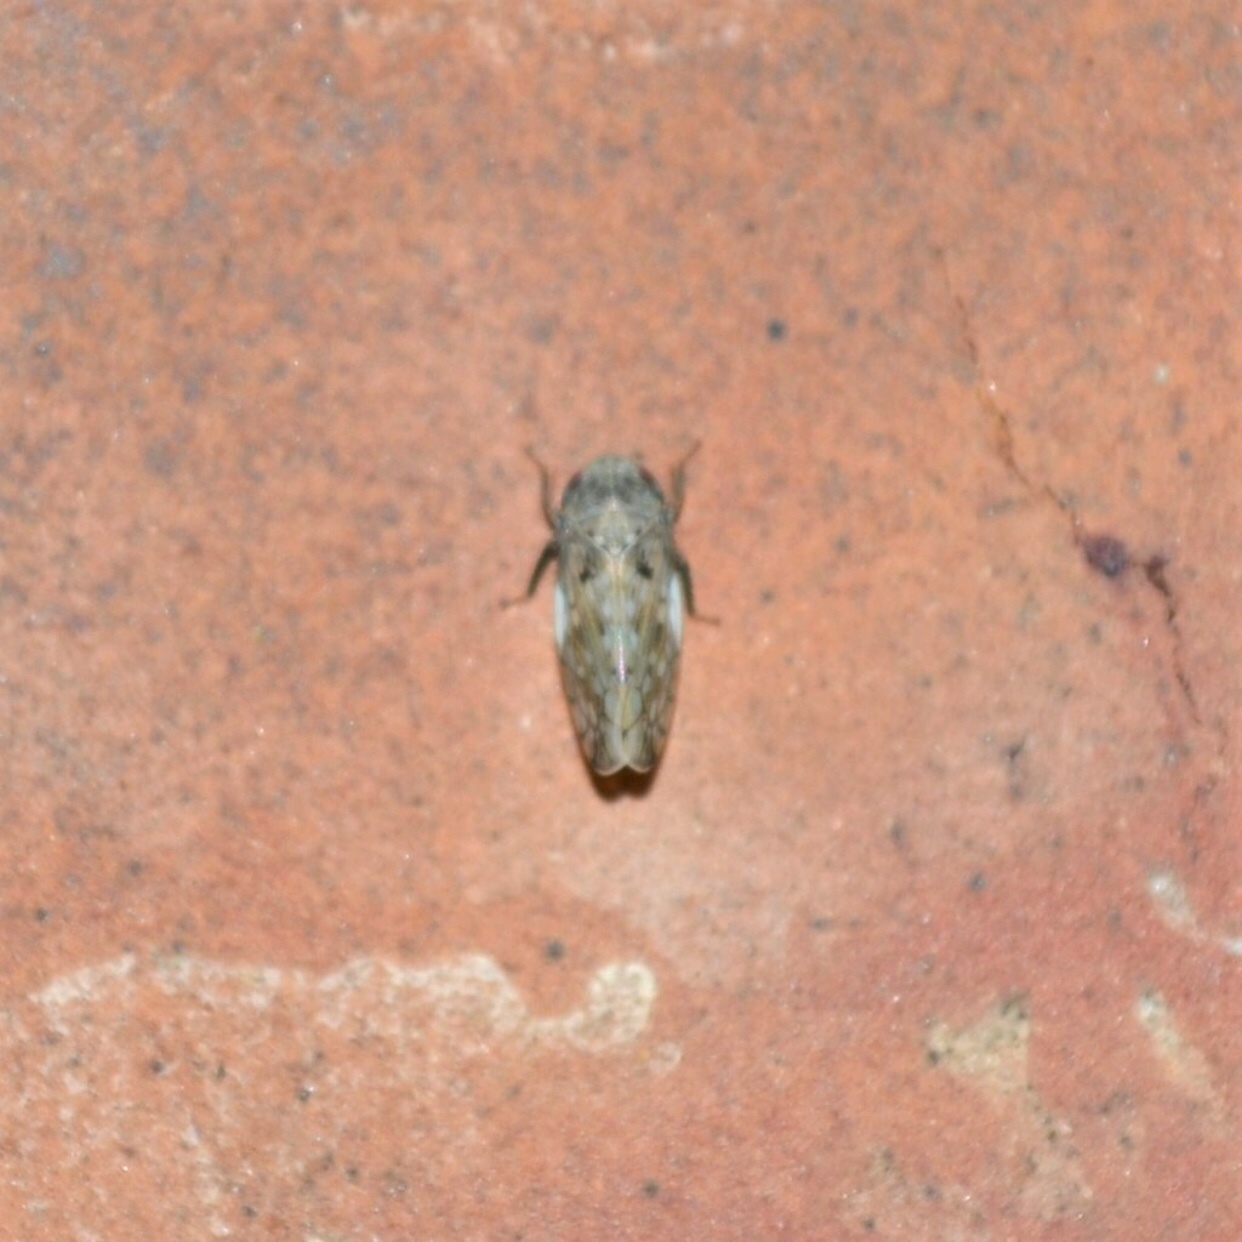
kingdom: Animalia
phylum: Arthropoda
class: Insecta
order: Hemiptera
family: Cicadellidae
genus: Menosoma
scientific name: Menosoma cinctum
